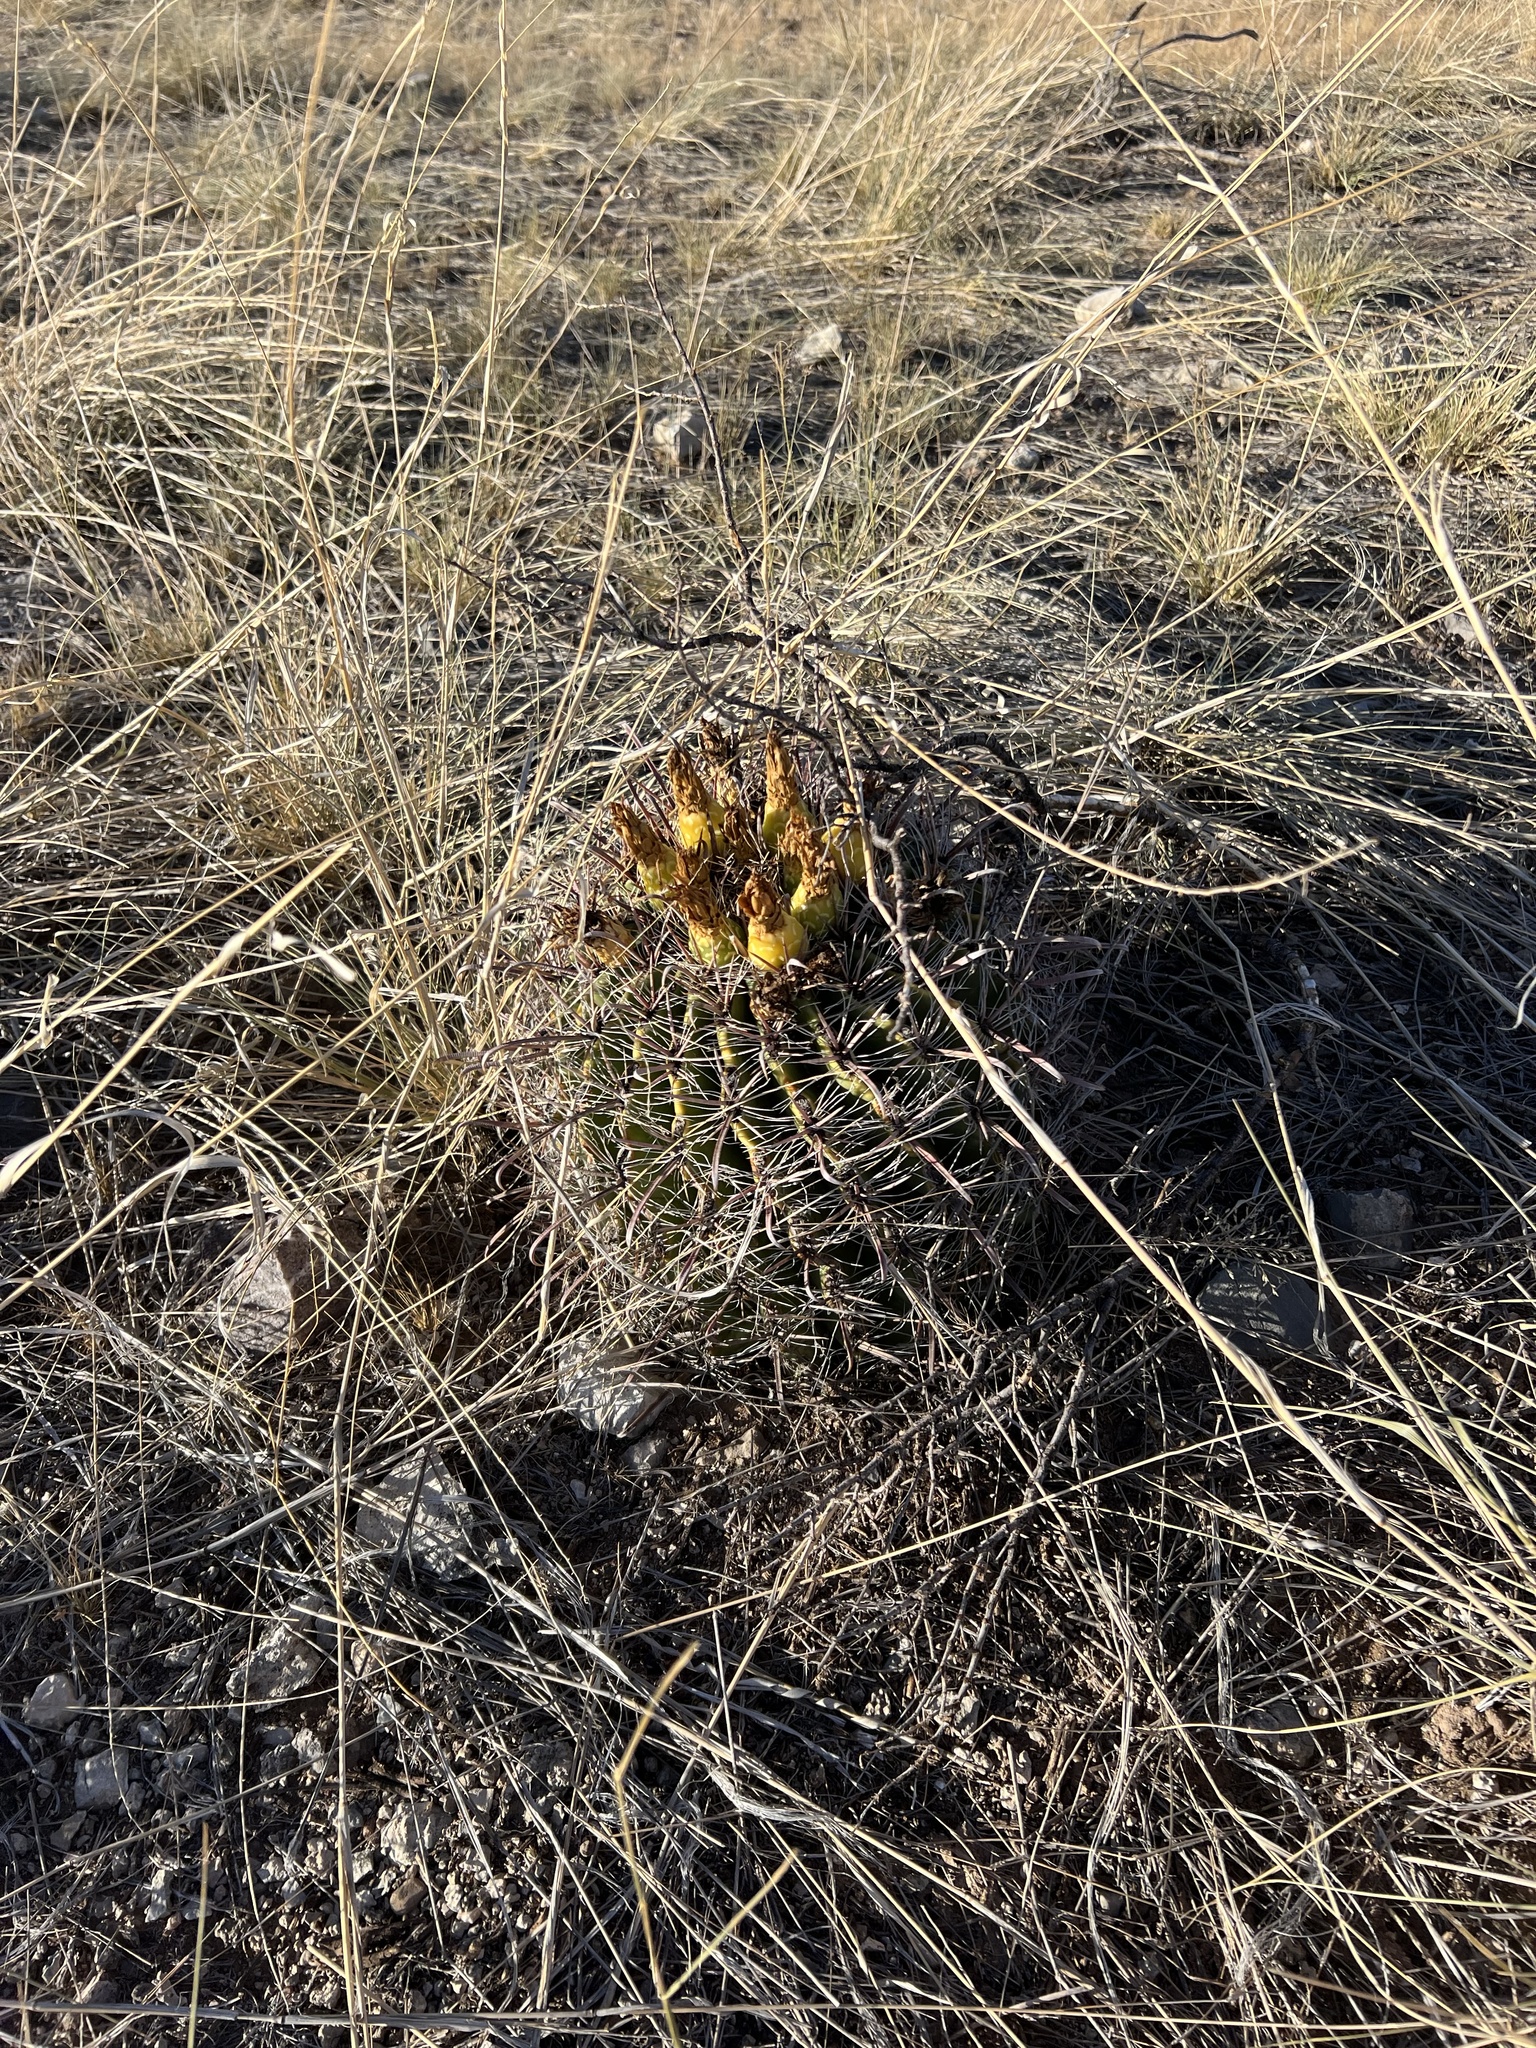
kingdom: Plantae
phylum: Tracheophyta
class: Magnoliopsida
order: Caryophyllales
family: Cactaceae
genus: Ferocactus
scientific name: Ferocactus wislizeni
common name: Candy barrel cactus
